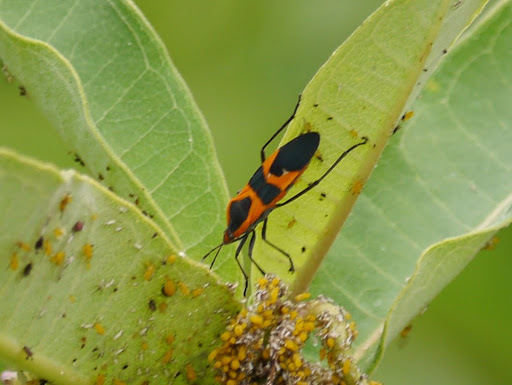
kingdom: Animalia
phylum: Arthropoda
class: Insecta
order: Hemiptera
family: Lygaeidae
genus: Oncopeltus
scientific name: Oncopeltus fasciatus
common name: Large milkweed bug
